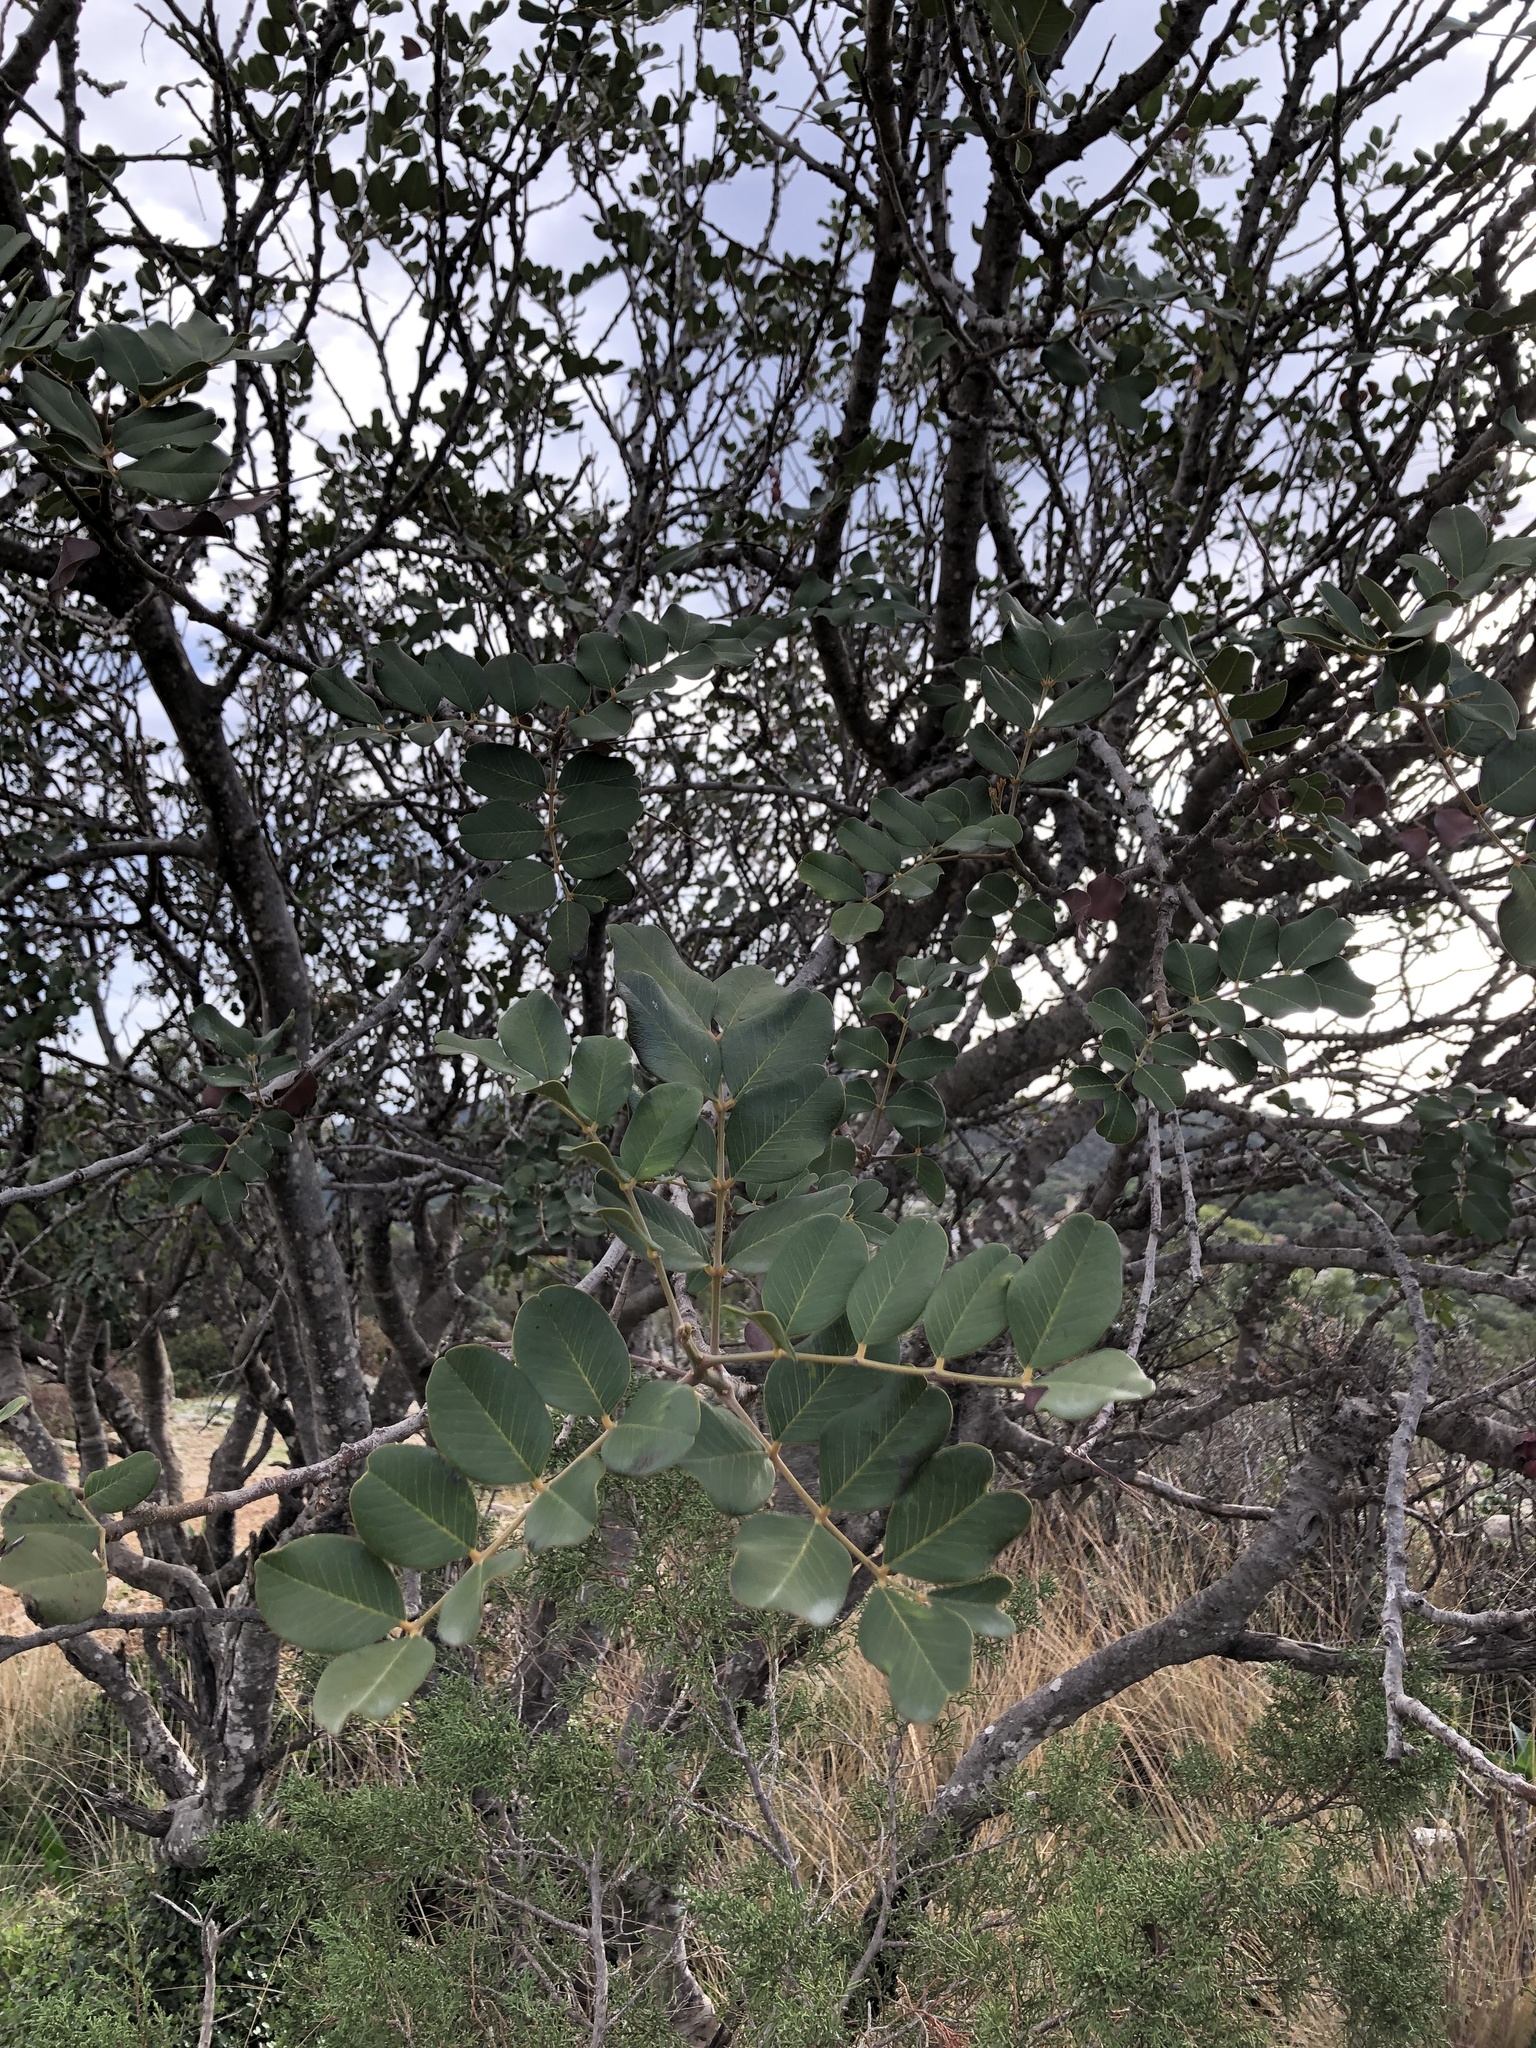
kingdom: Plantae
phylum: Tracheophyta
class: Magnoliopsida
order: Fabales
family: Fabaceae
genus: Ceratonia
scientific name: Ceratonia siliqua
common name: Carob
